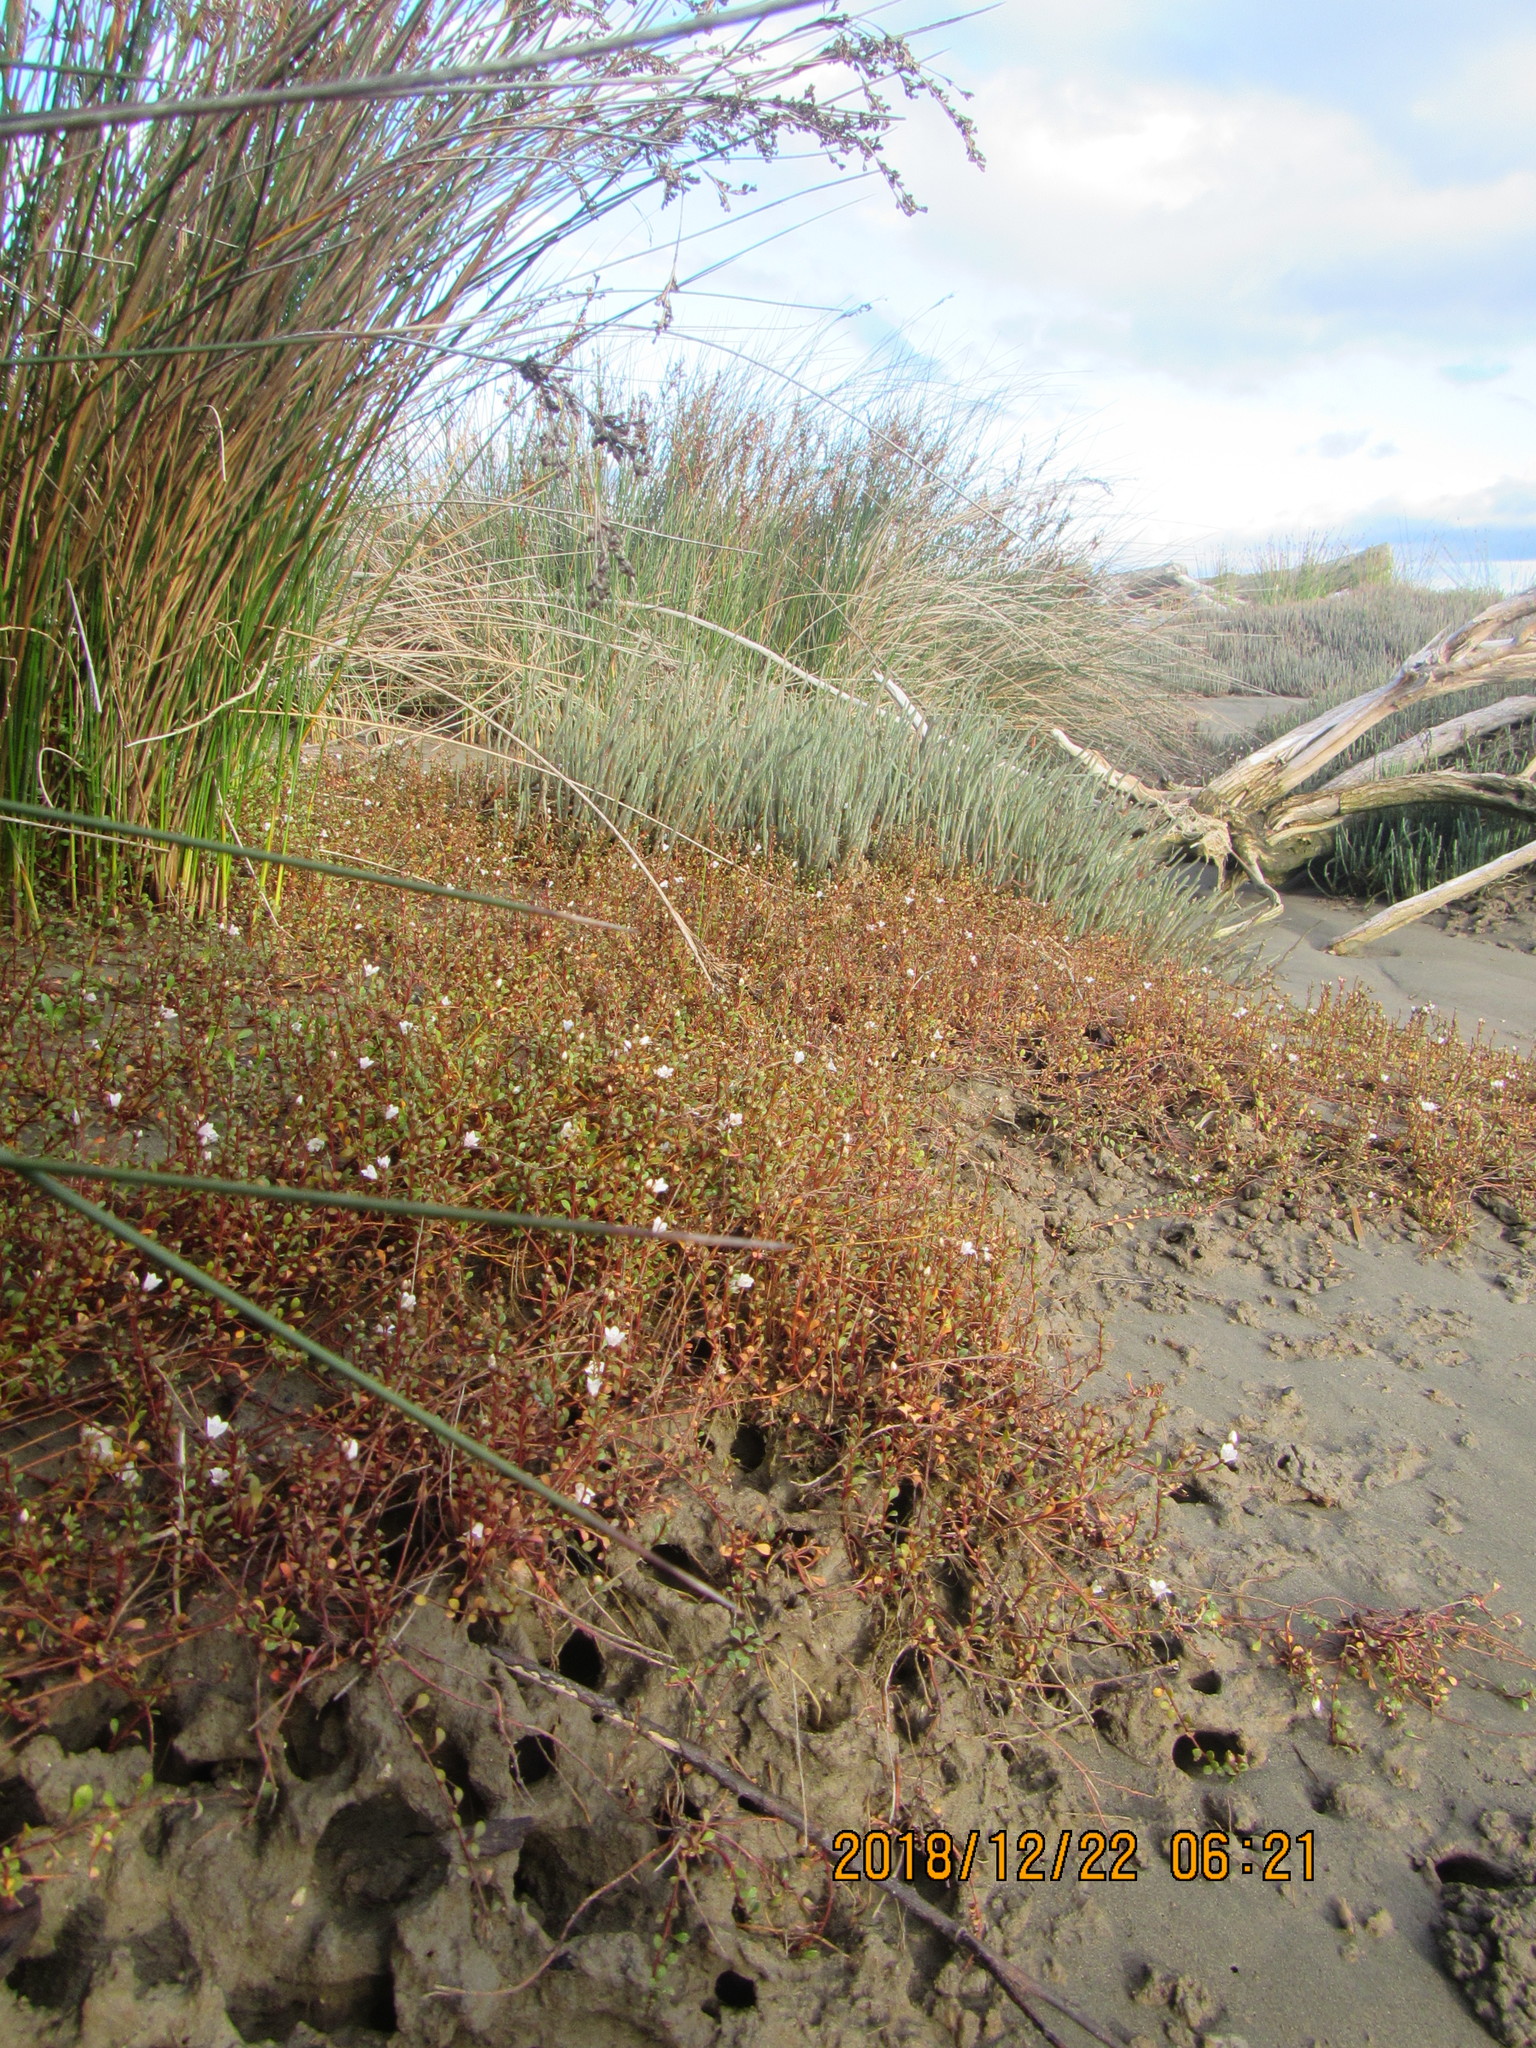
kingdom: Plantae
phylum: Tracheophyta
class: Magnoliopsida
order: Ericales
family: Primulaceae
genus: Samolus
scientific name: Samolus repens
